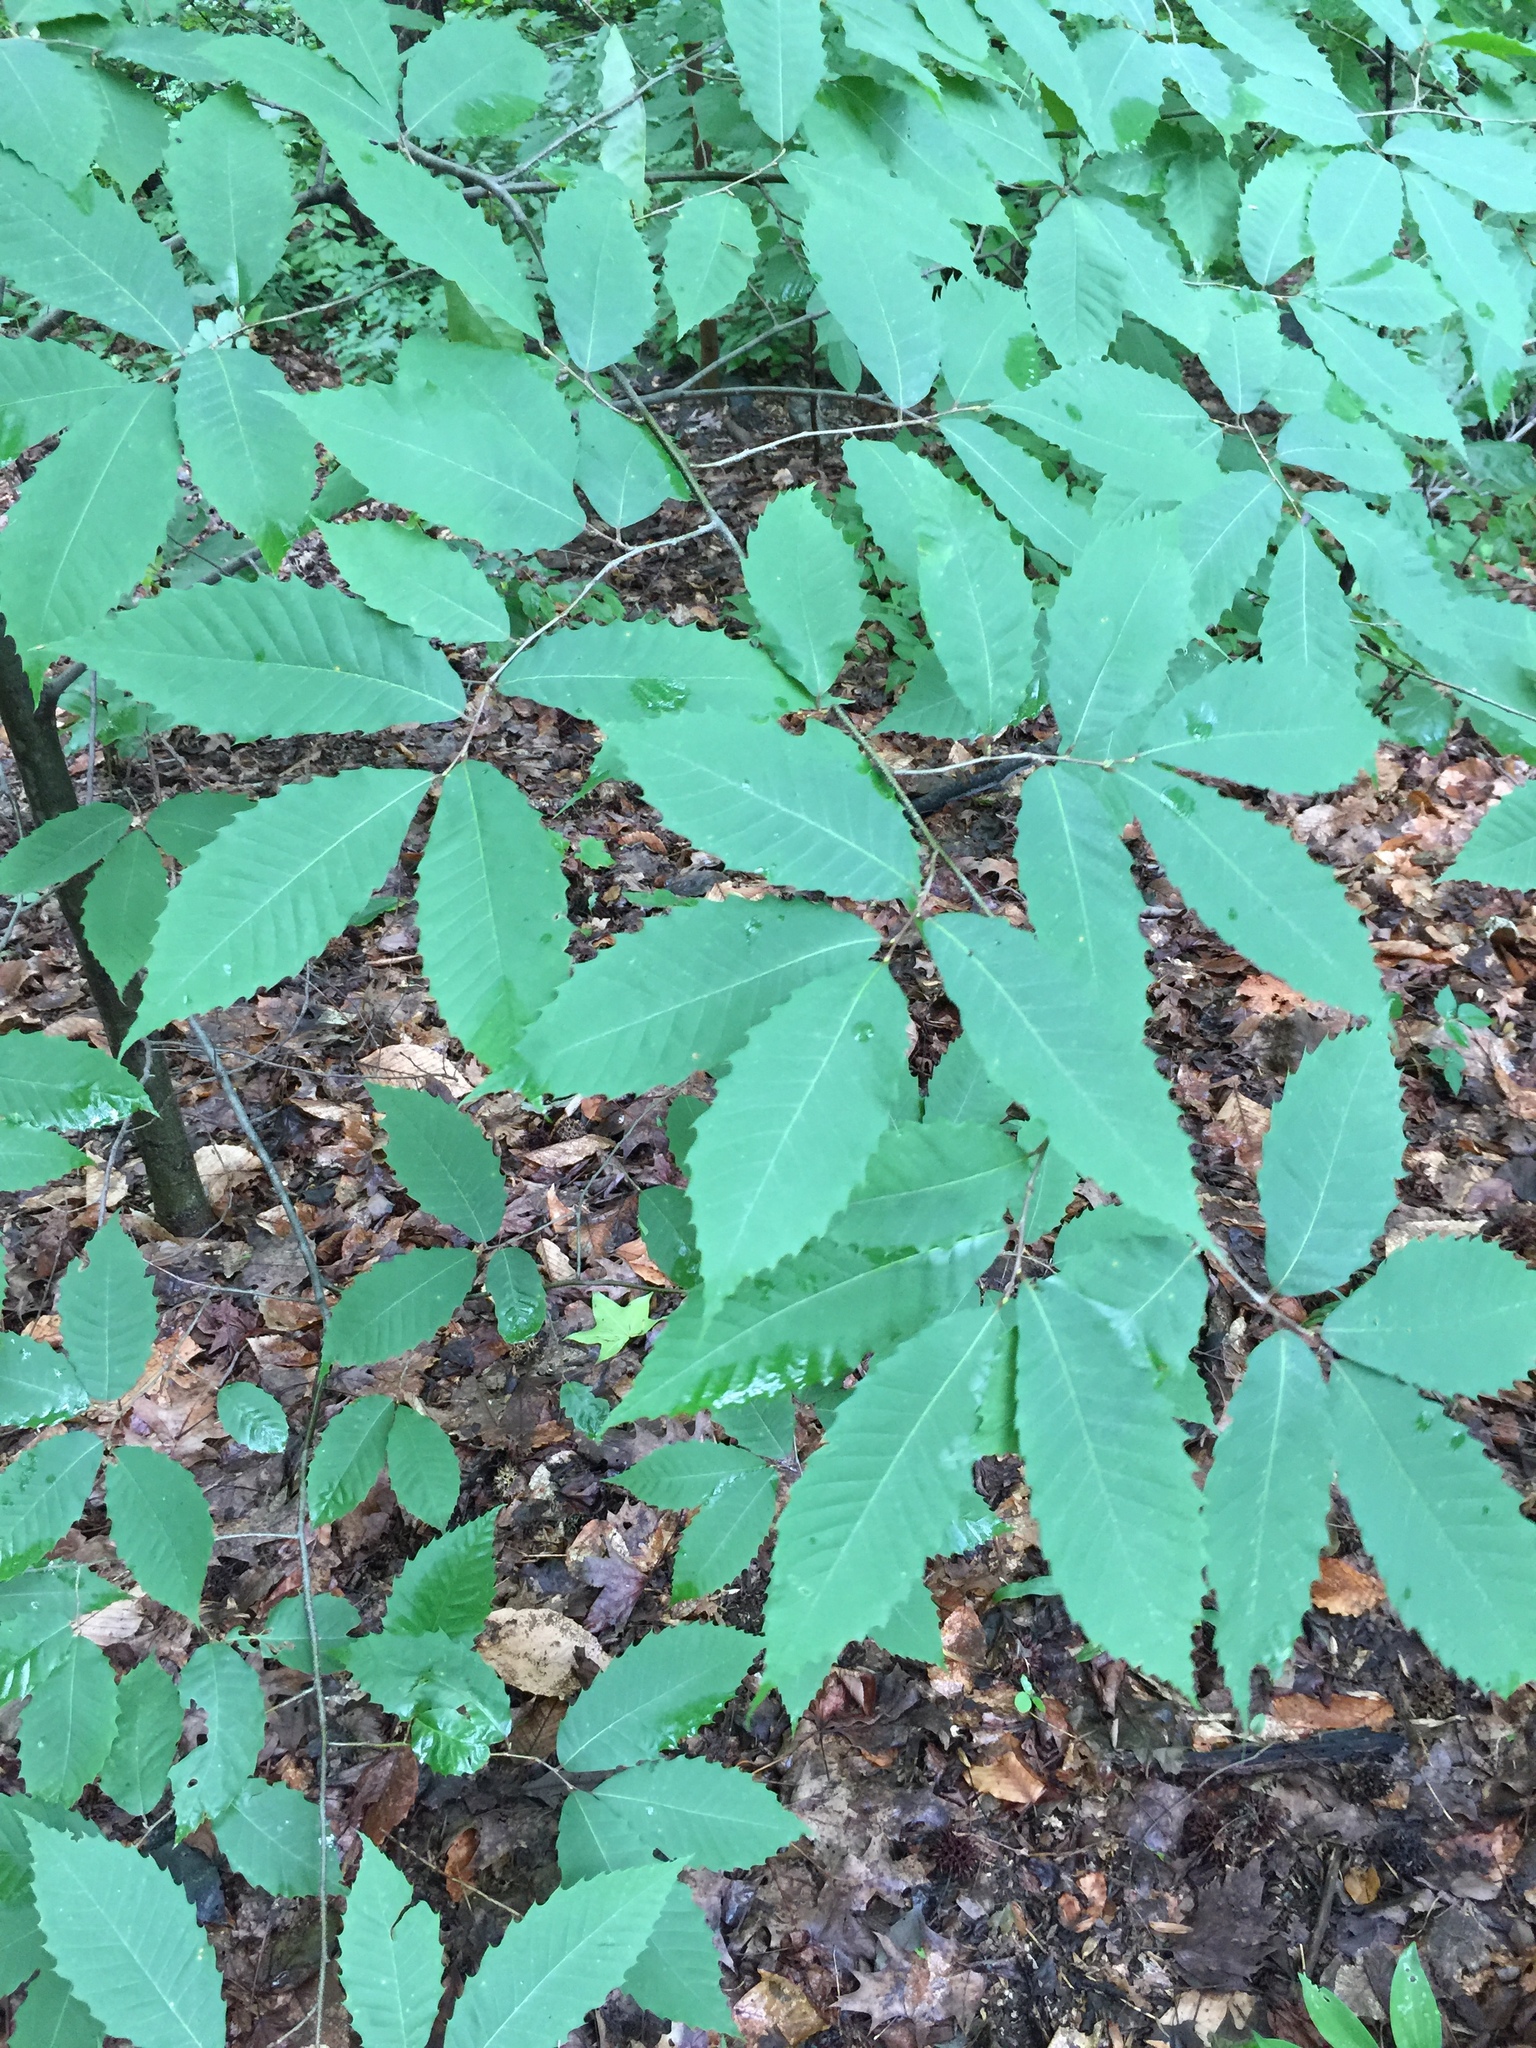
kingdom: Plantae
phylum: Tracheophyta
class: Magnoliopsida
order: Fagales
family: Fagaceae
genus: Castanea
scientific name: Castanea dentata
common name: American chestnut
